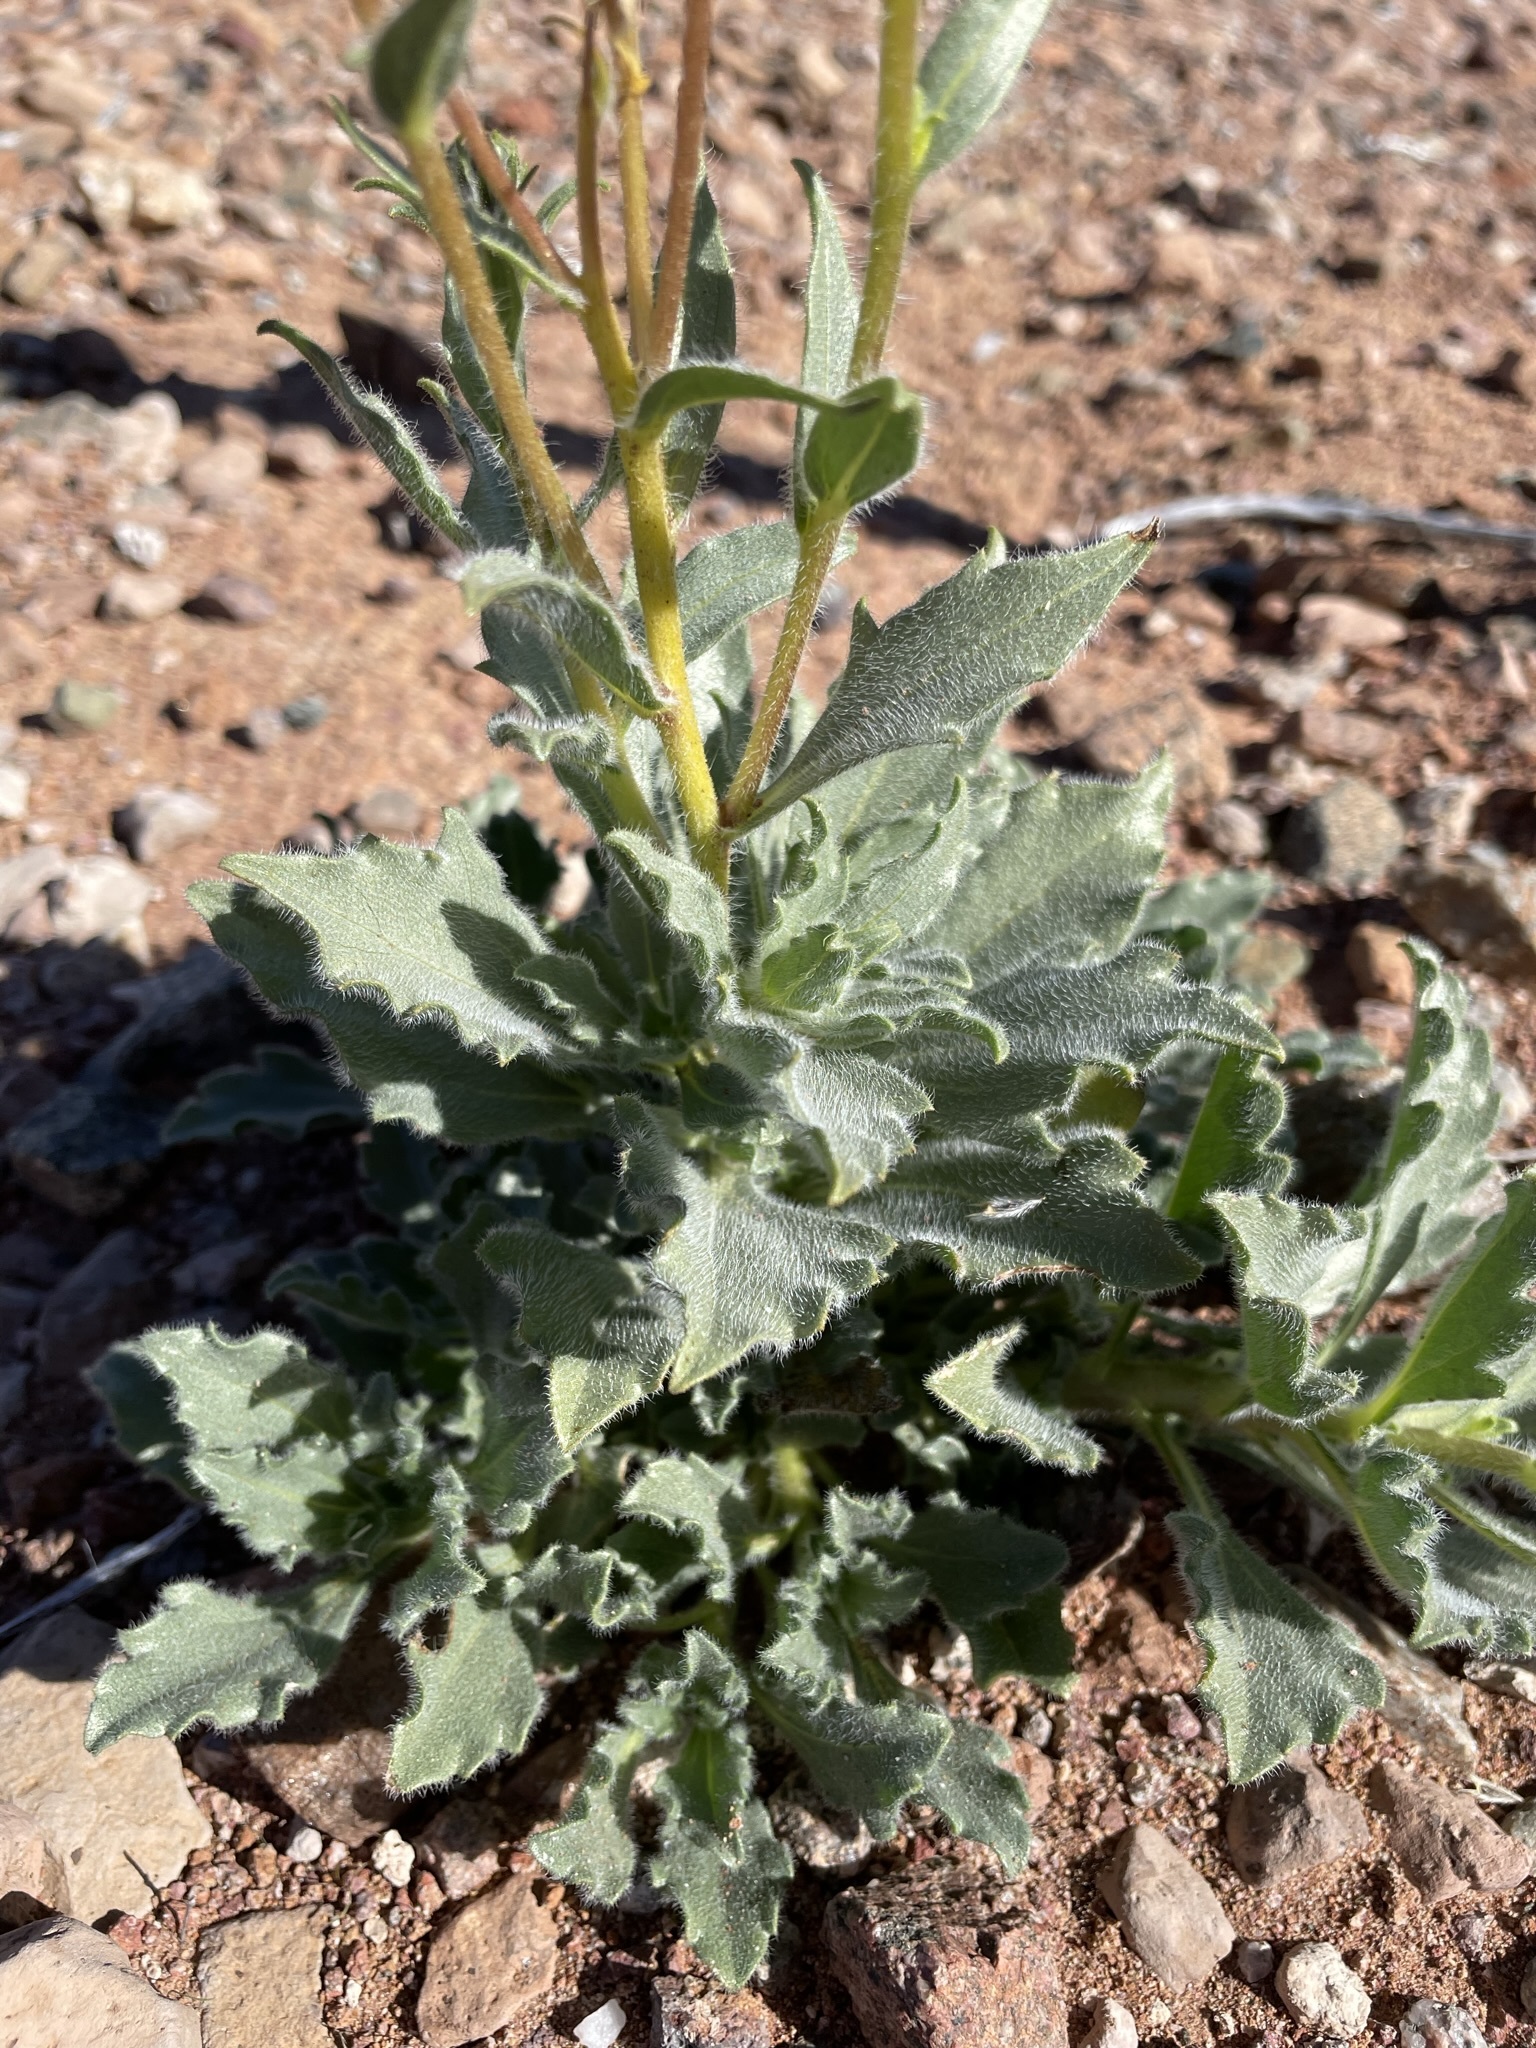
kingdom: Plantae
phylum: Tracheophyta
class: Magnoliopsida
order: Asterales
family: Asteraceae
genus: Geraea
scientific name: Geraea canescens
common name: Desert-gold
